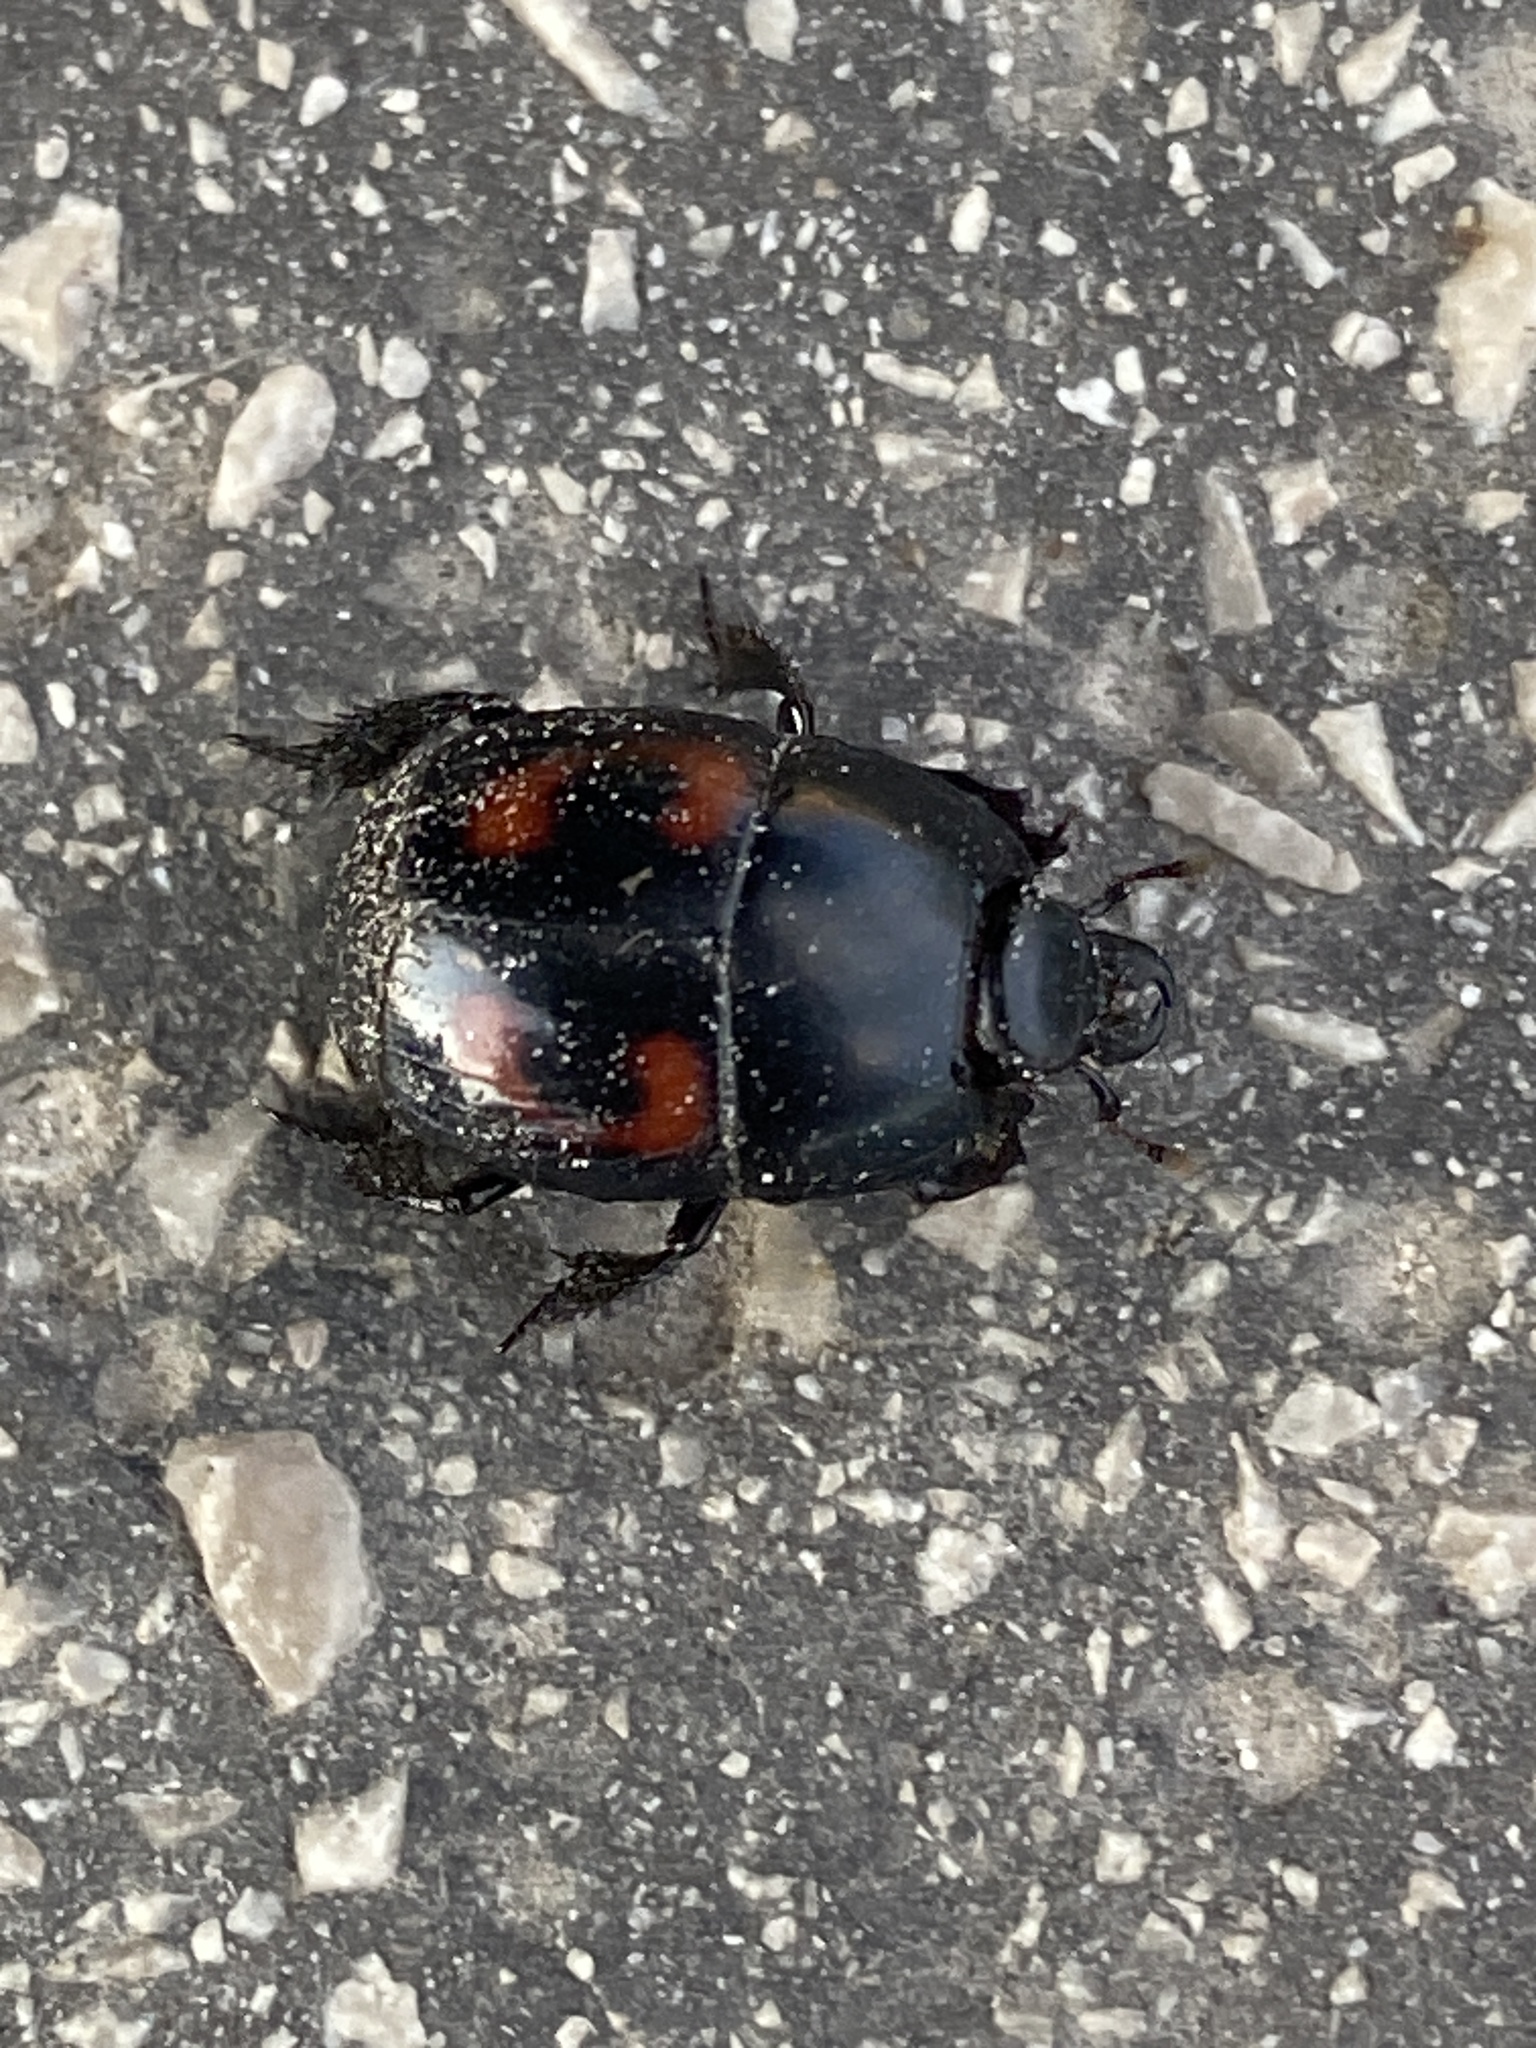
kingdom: Animalia
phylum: Arthropoda
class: Insecta
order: Coleoptera
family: Histeridae
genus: Hister
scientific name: Hister quadrimaculatus
